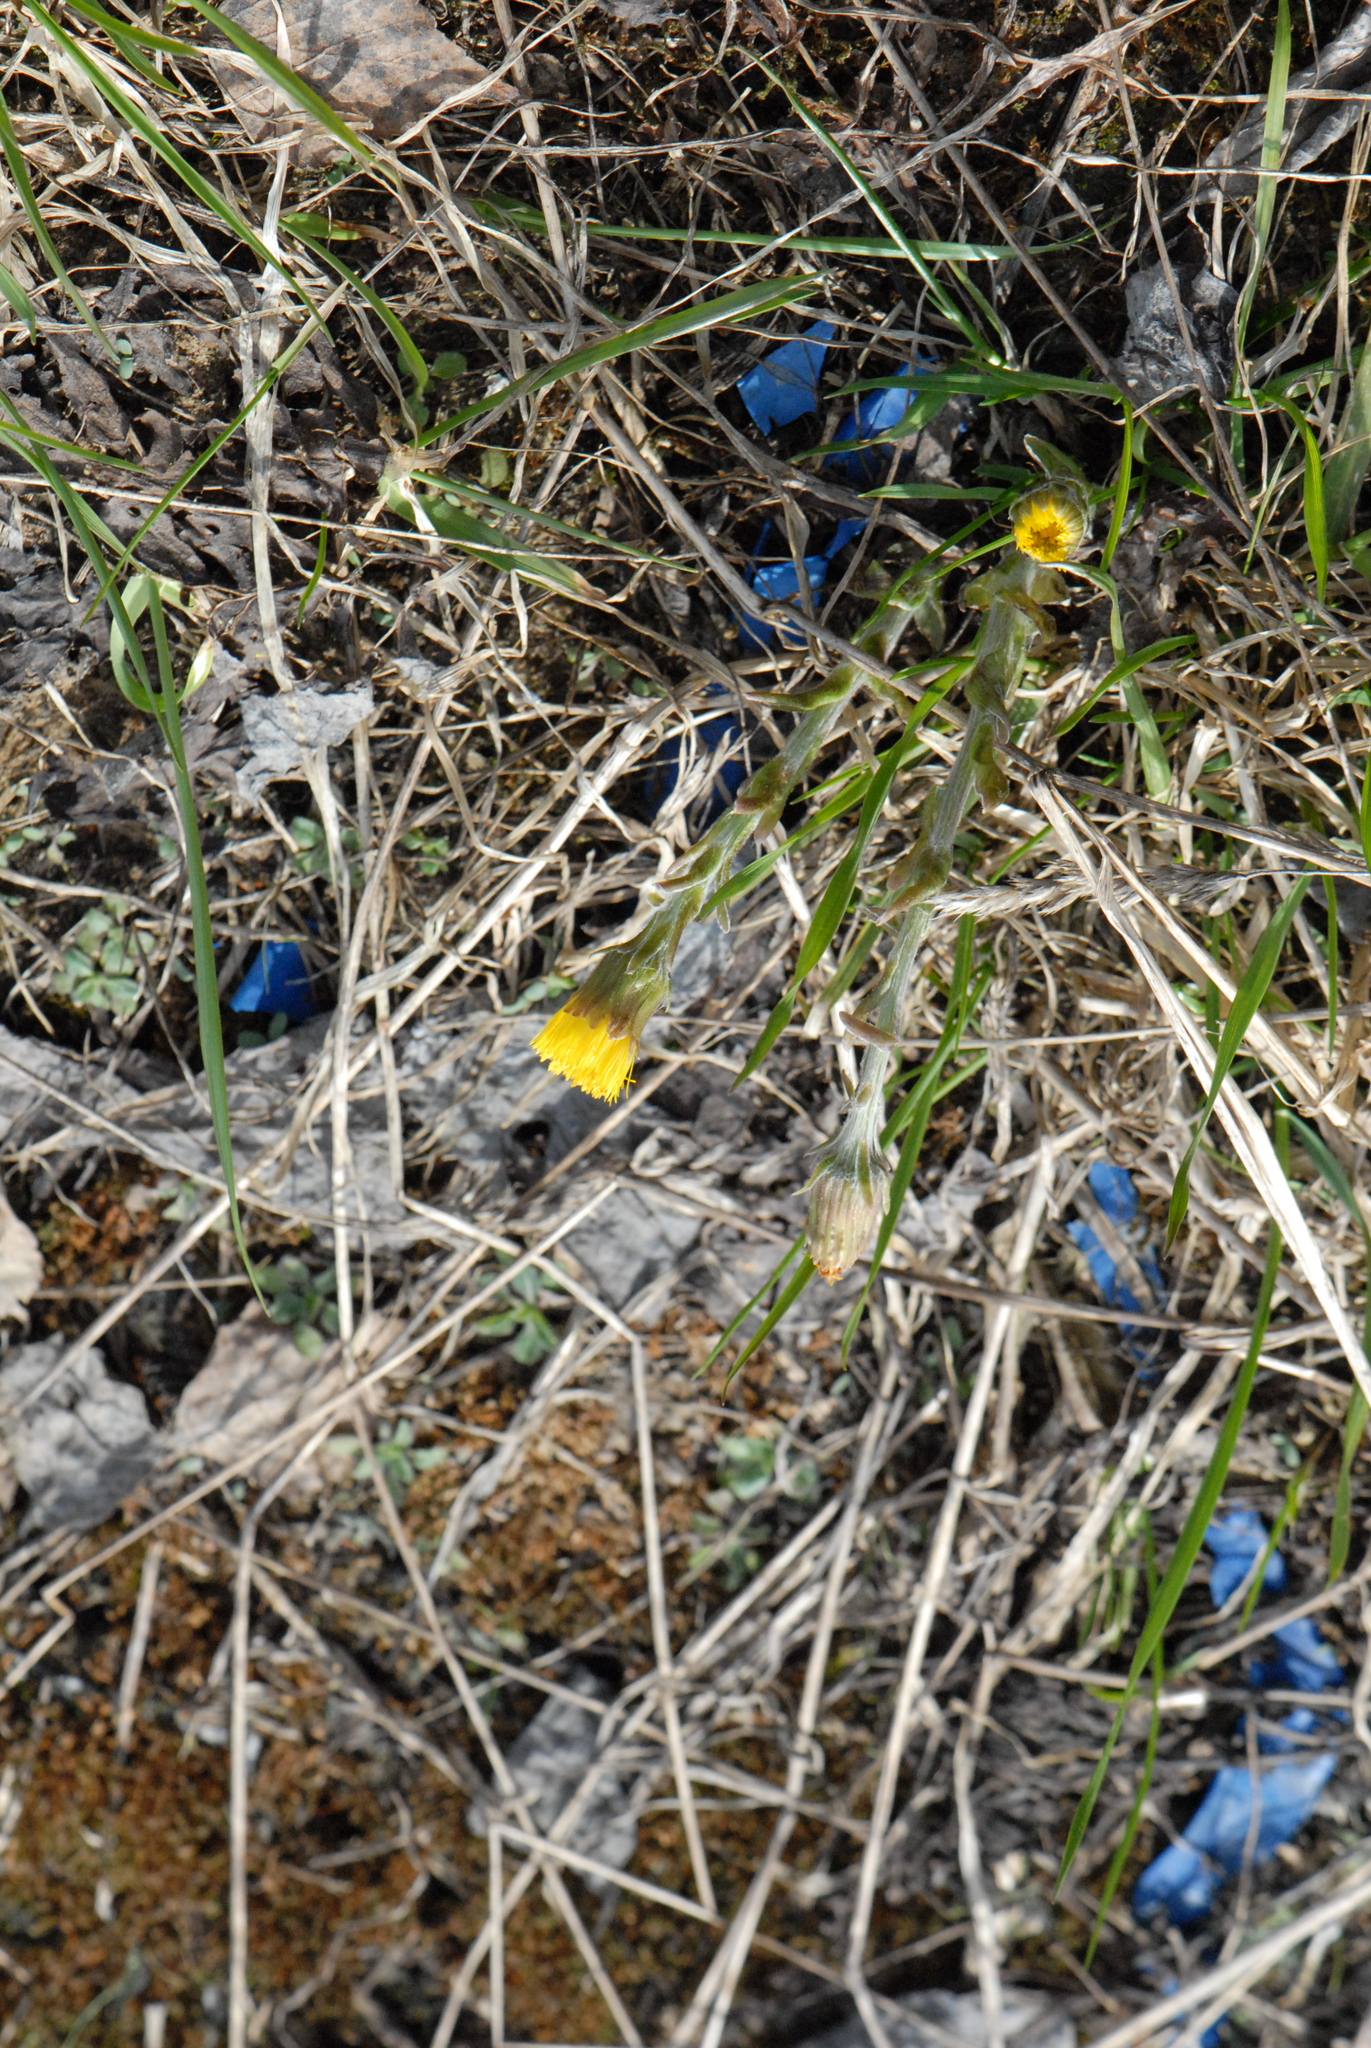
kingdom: Plantae
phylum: Tracheophyta
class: Magnoliopsida
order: Asterales
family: Asteraceae
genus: Tussilago
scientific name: Tussilago farfara
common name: Coltsfoot
